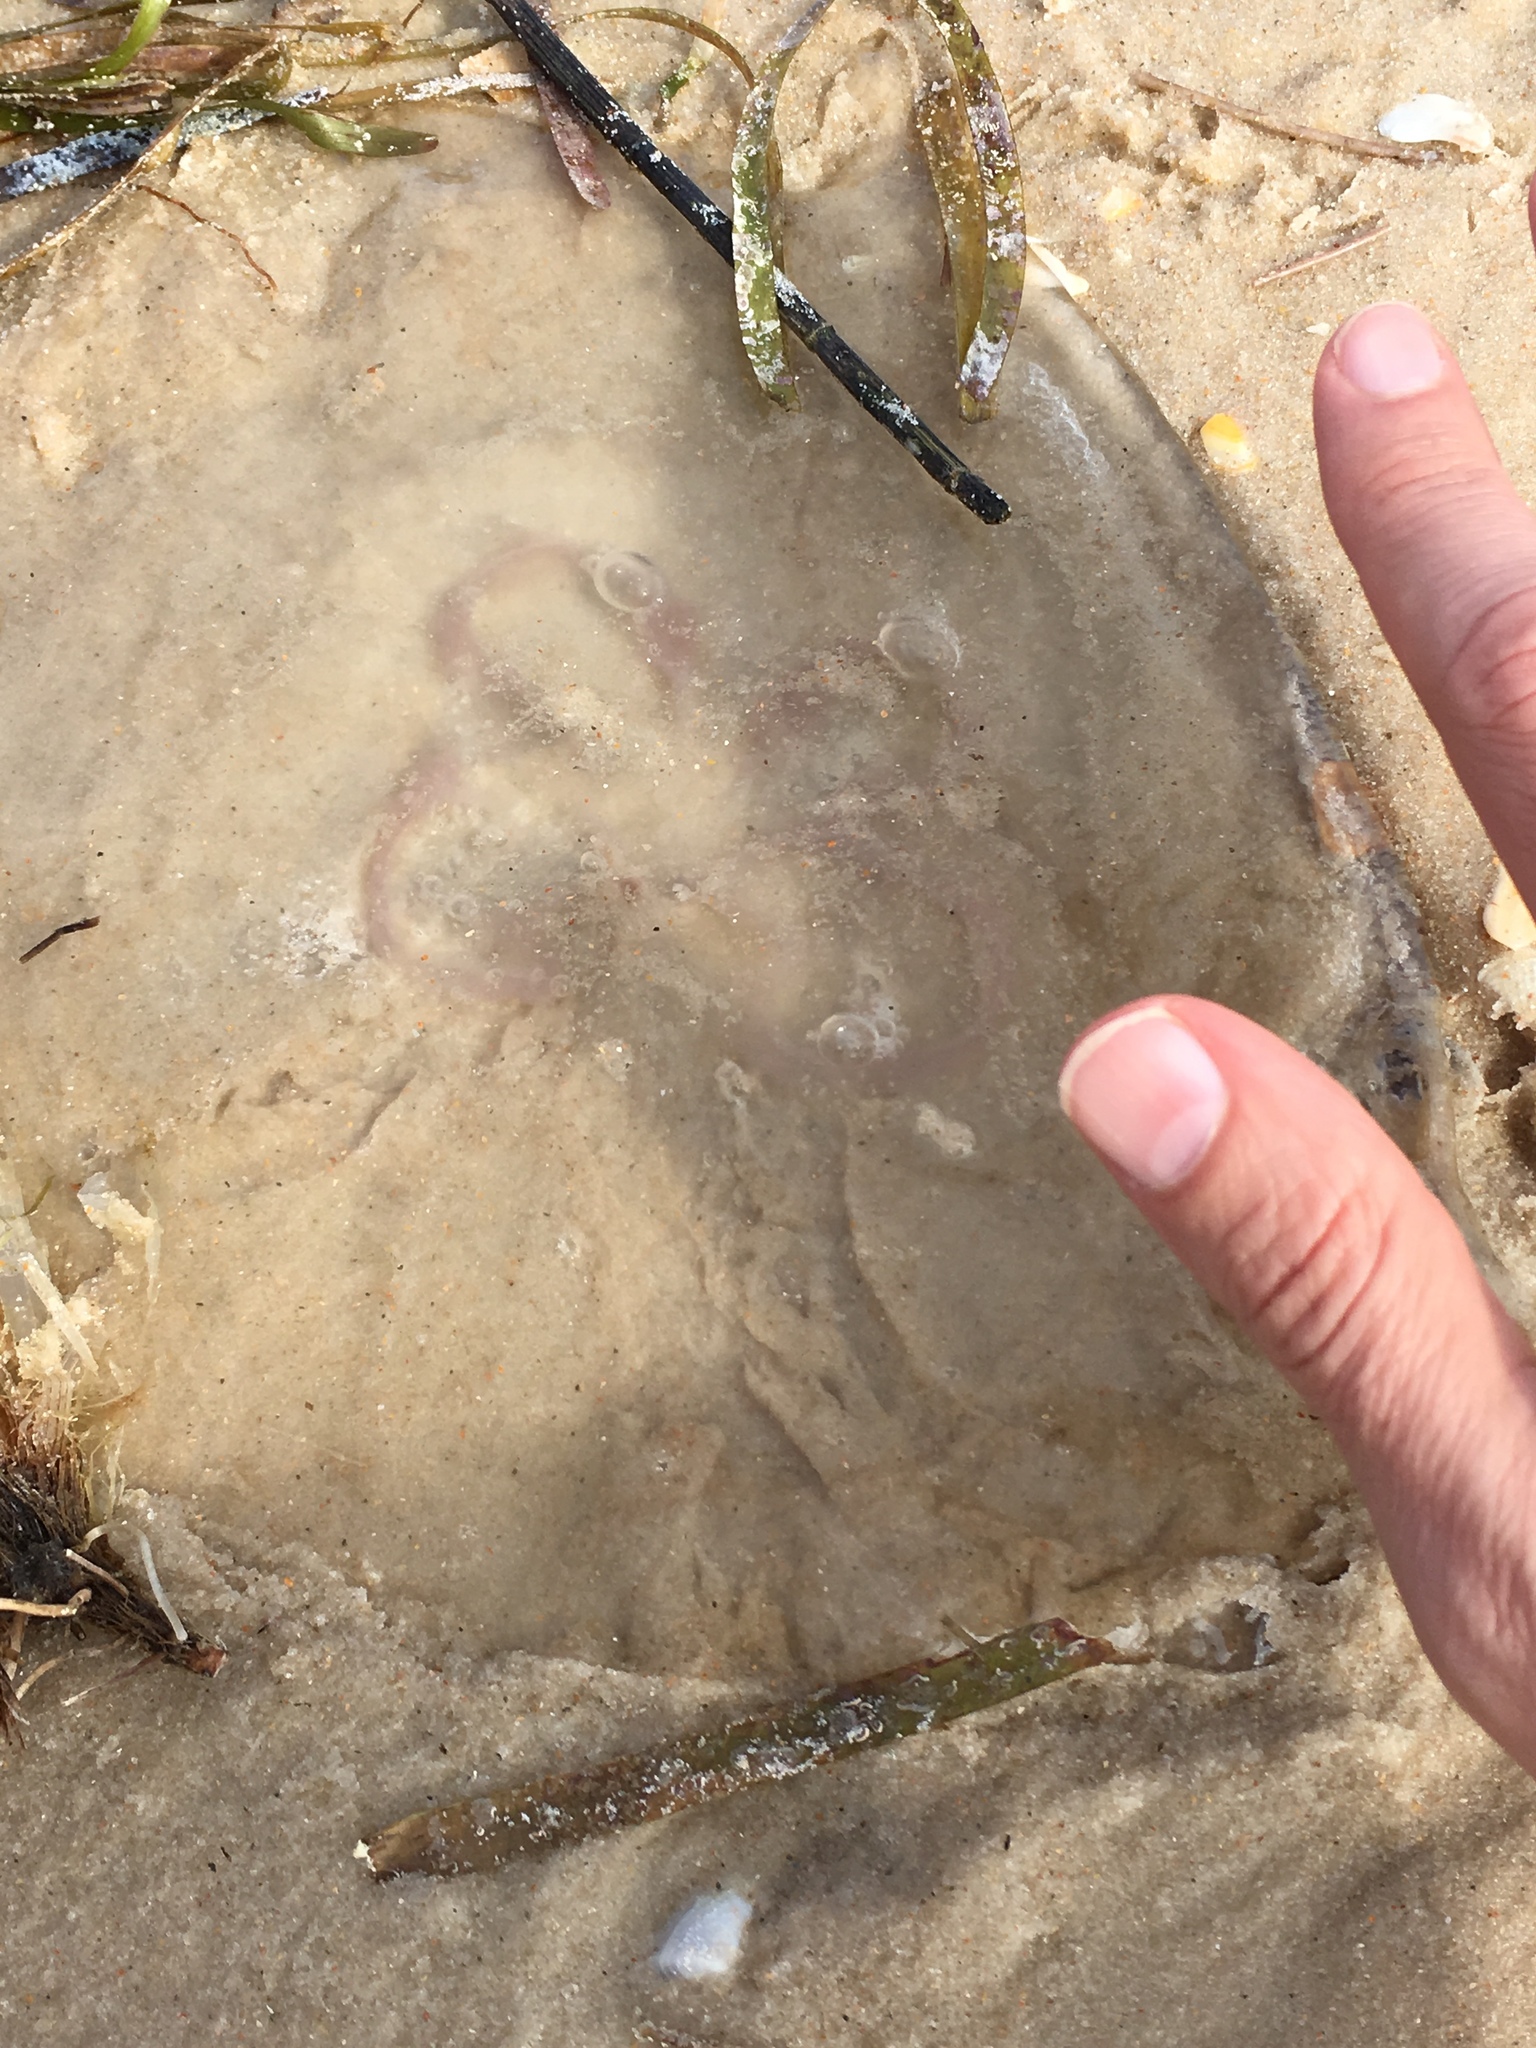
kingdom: Animalia
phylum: Cnidaria
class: Scyphozoa
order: Semaeostomeae
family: Ulmaridae
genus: Aurelia
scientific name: Aurelia marginalis
